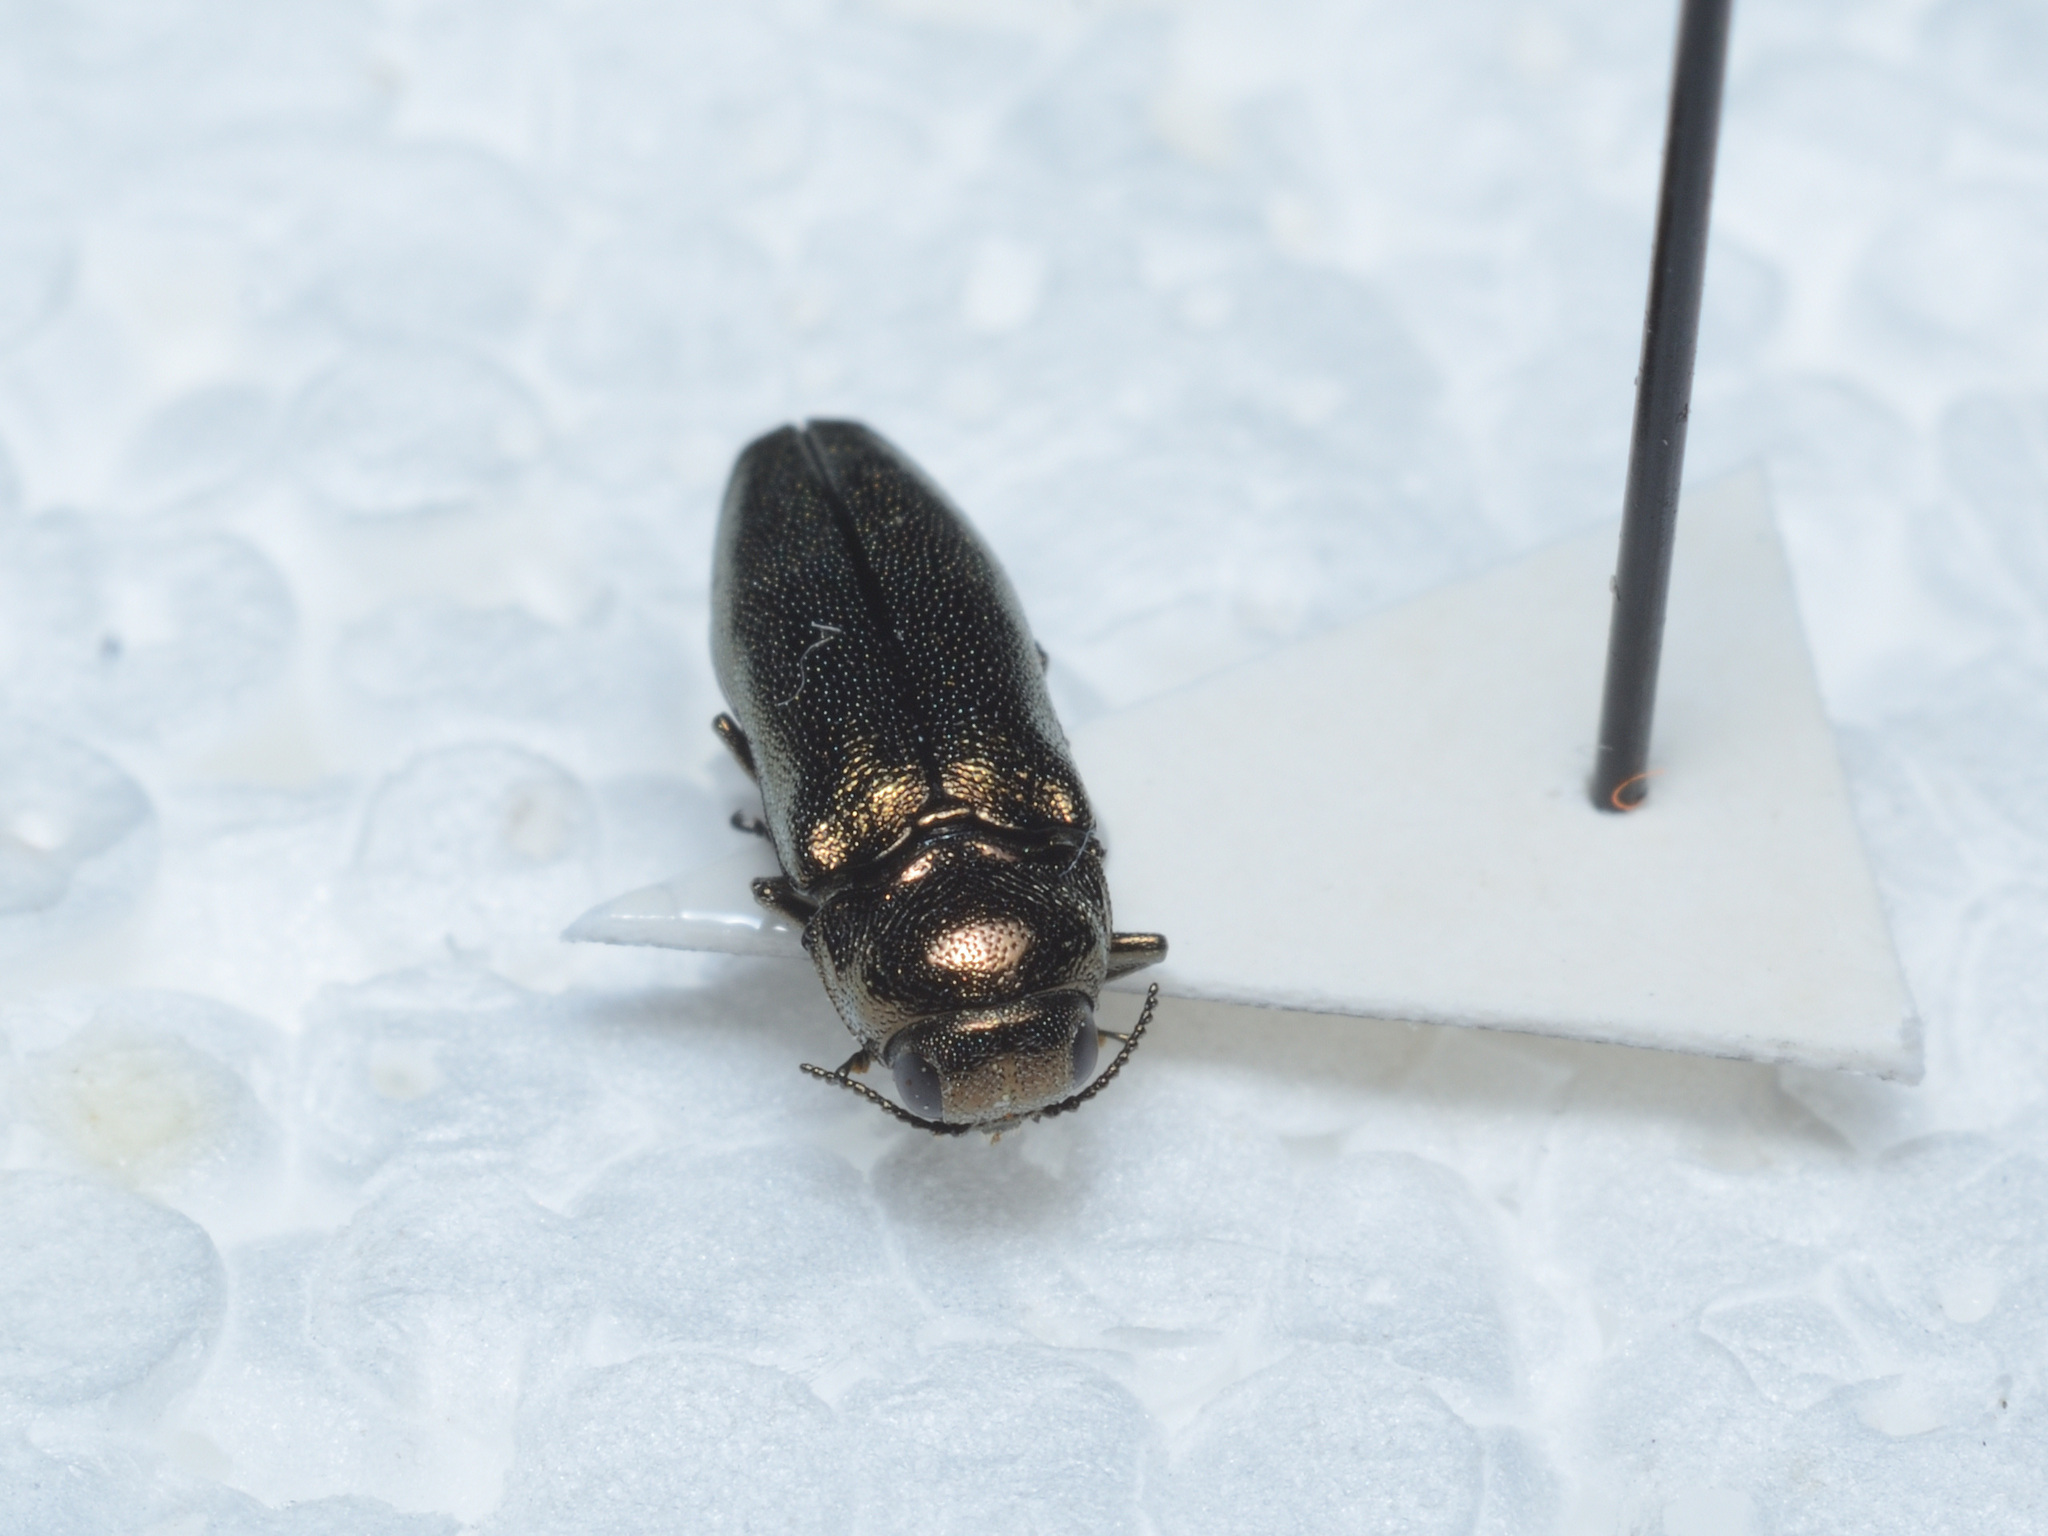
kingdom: Animalia
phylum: Arthropoda
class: Insecta
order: Coleoptera
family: Buprestidae
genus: Coraebus
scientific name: Coraebus elatus
